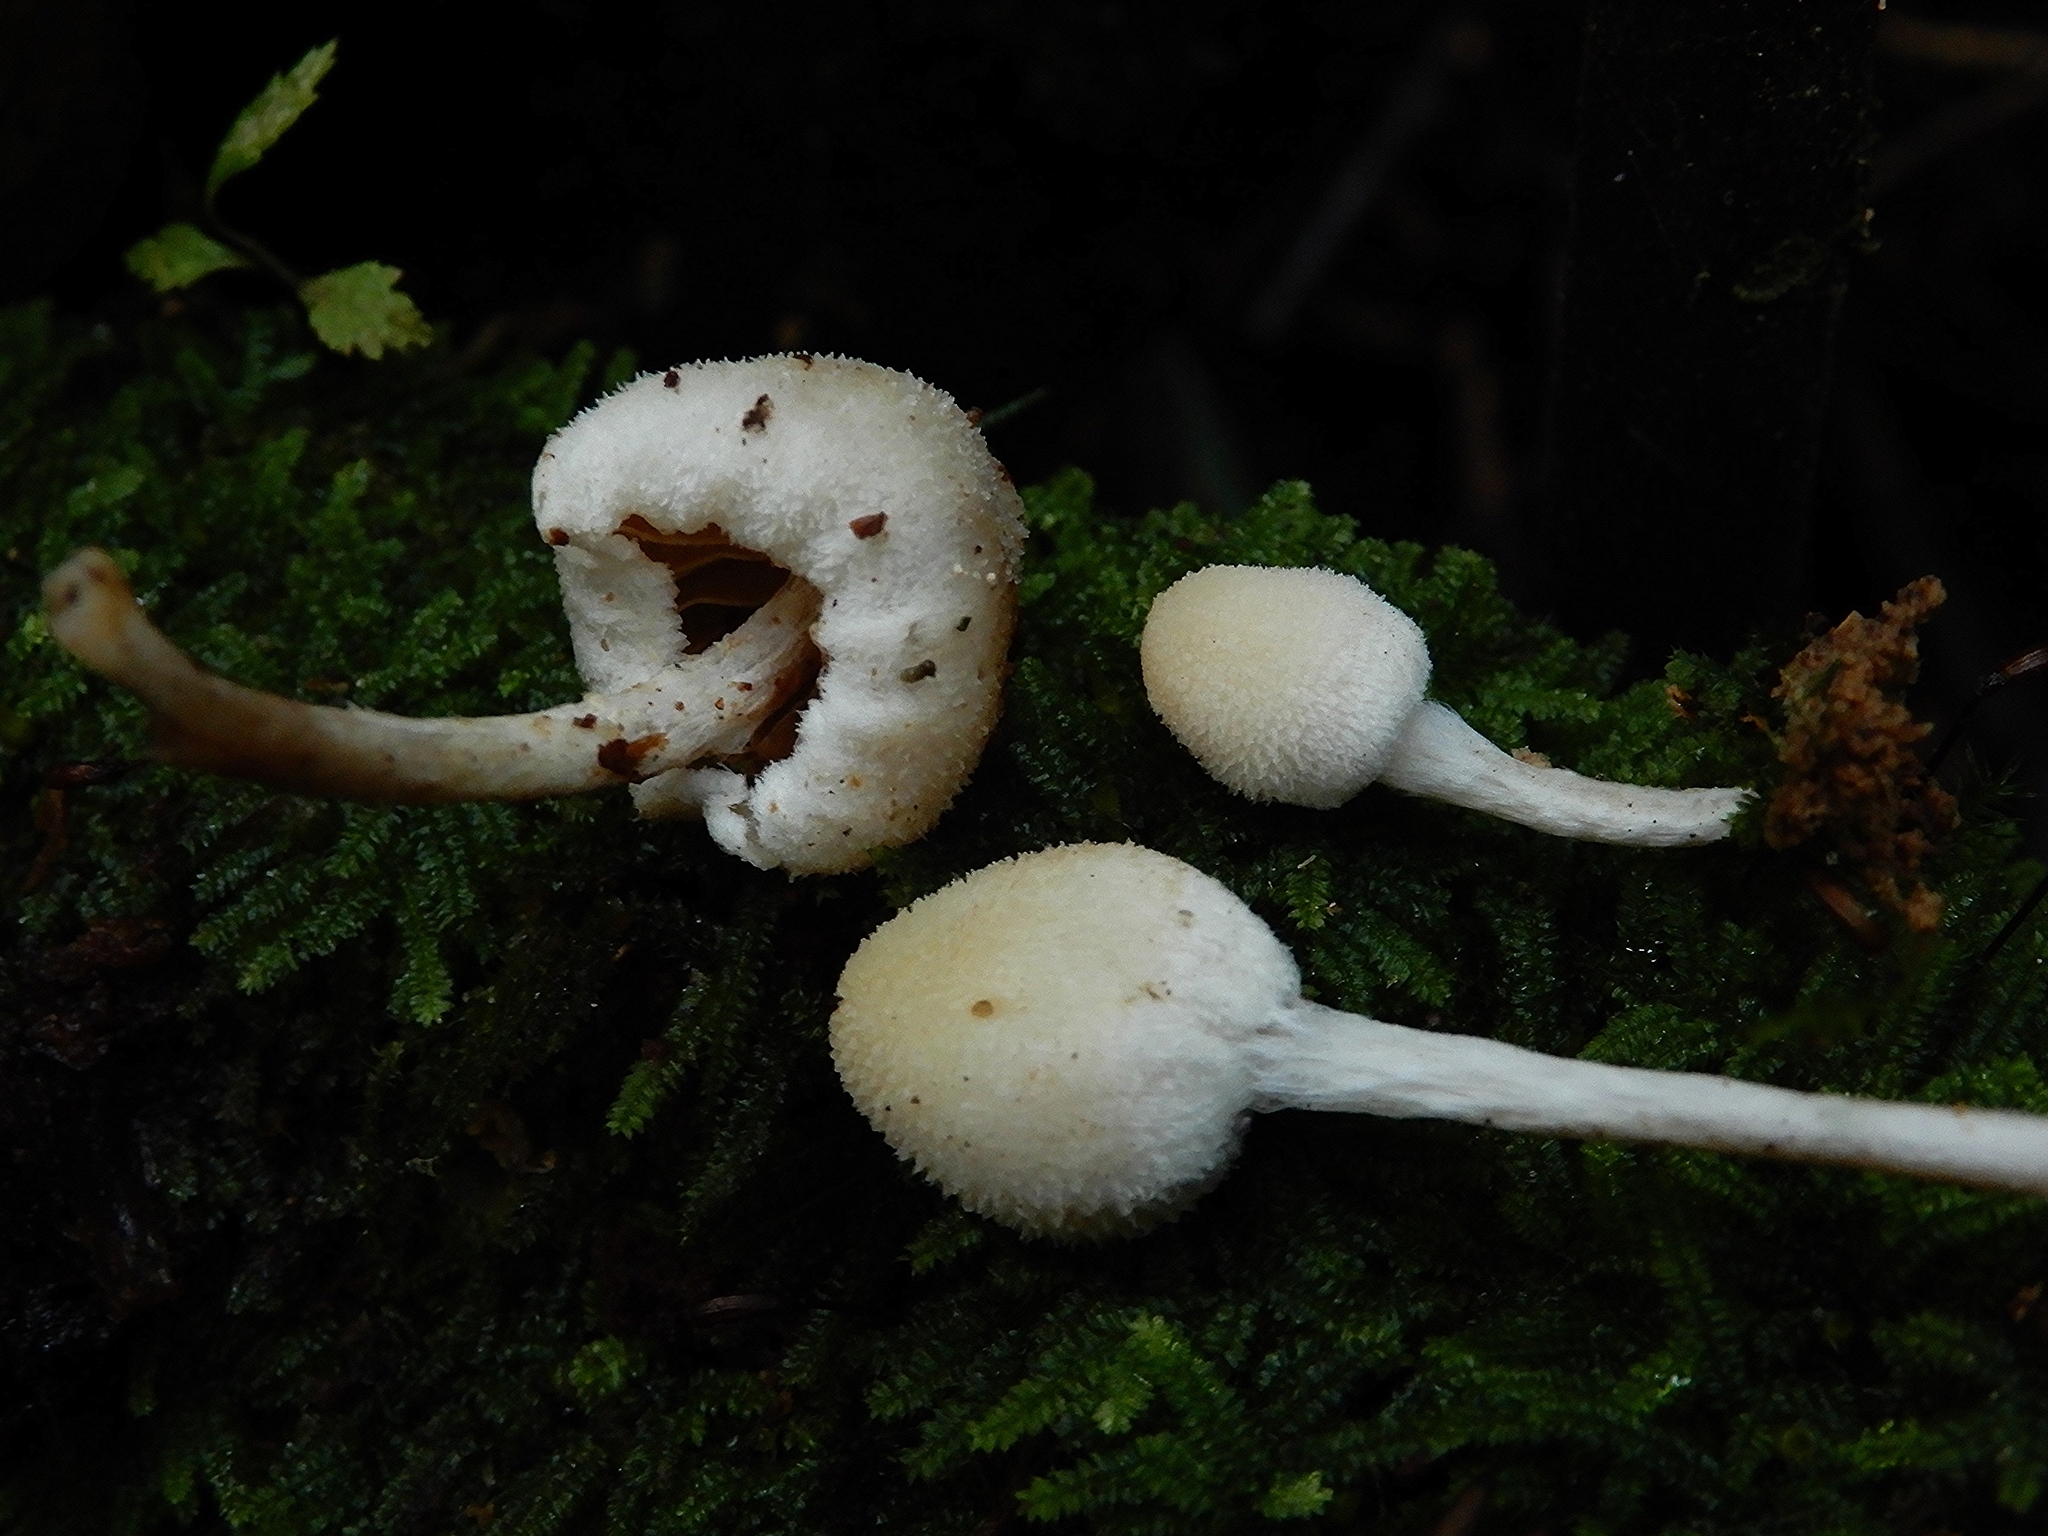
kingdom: Fungi
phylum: Basidiomycota
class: Agaricomycetes
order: Agaricales
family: Bolbitiaceae
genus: Tympanella
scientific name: Tympanella galanthina
